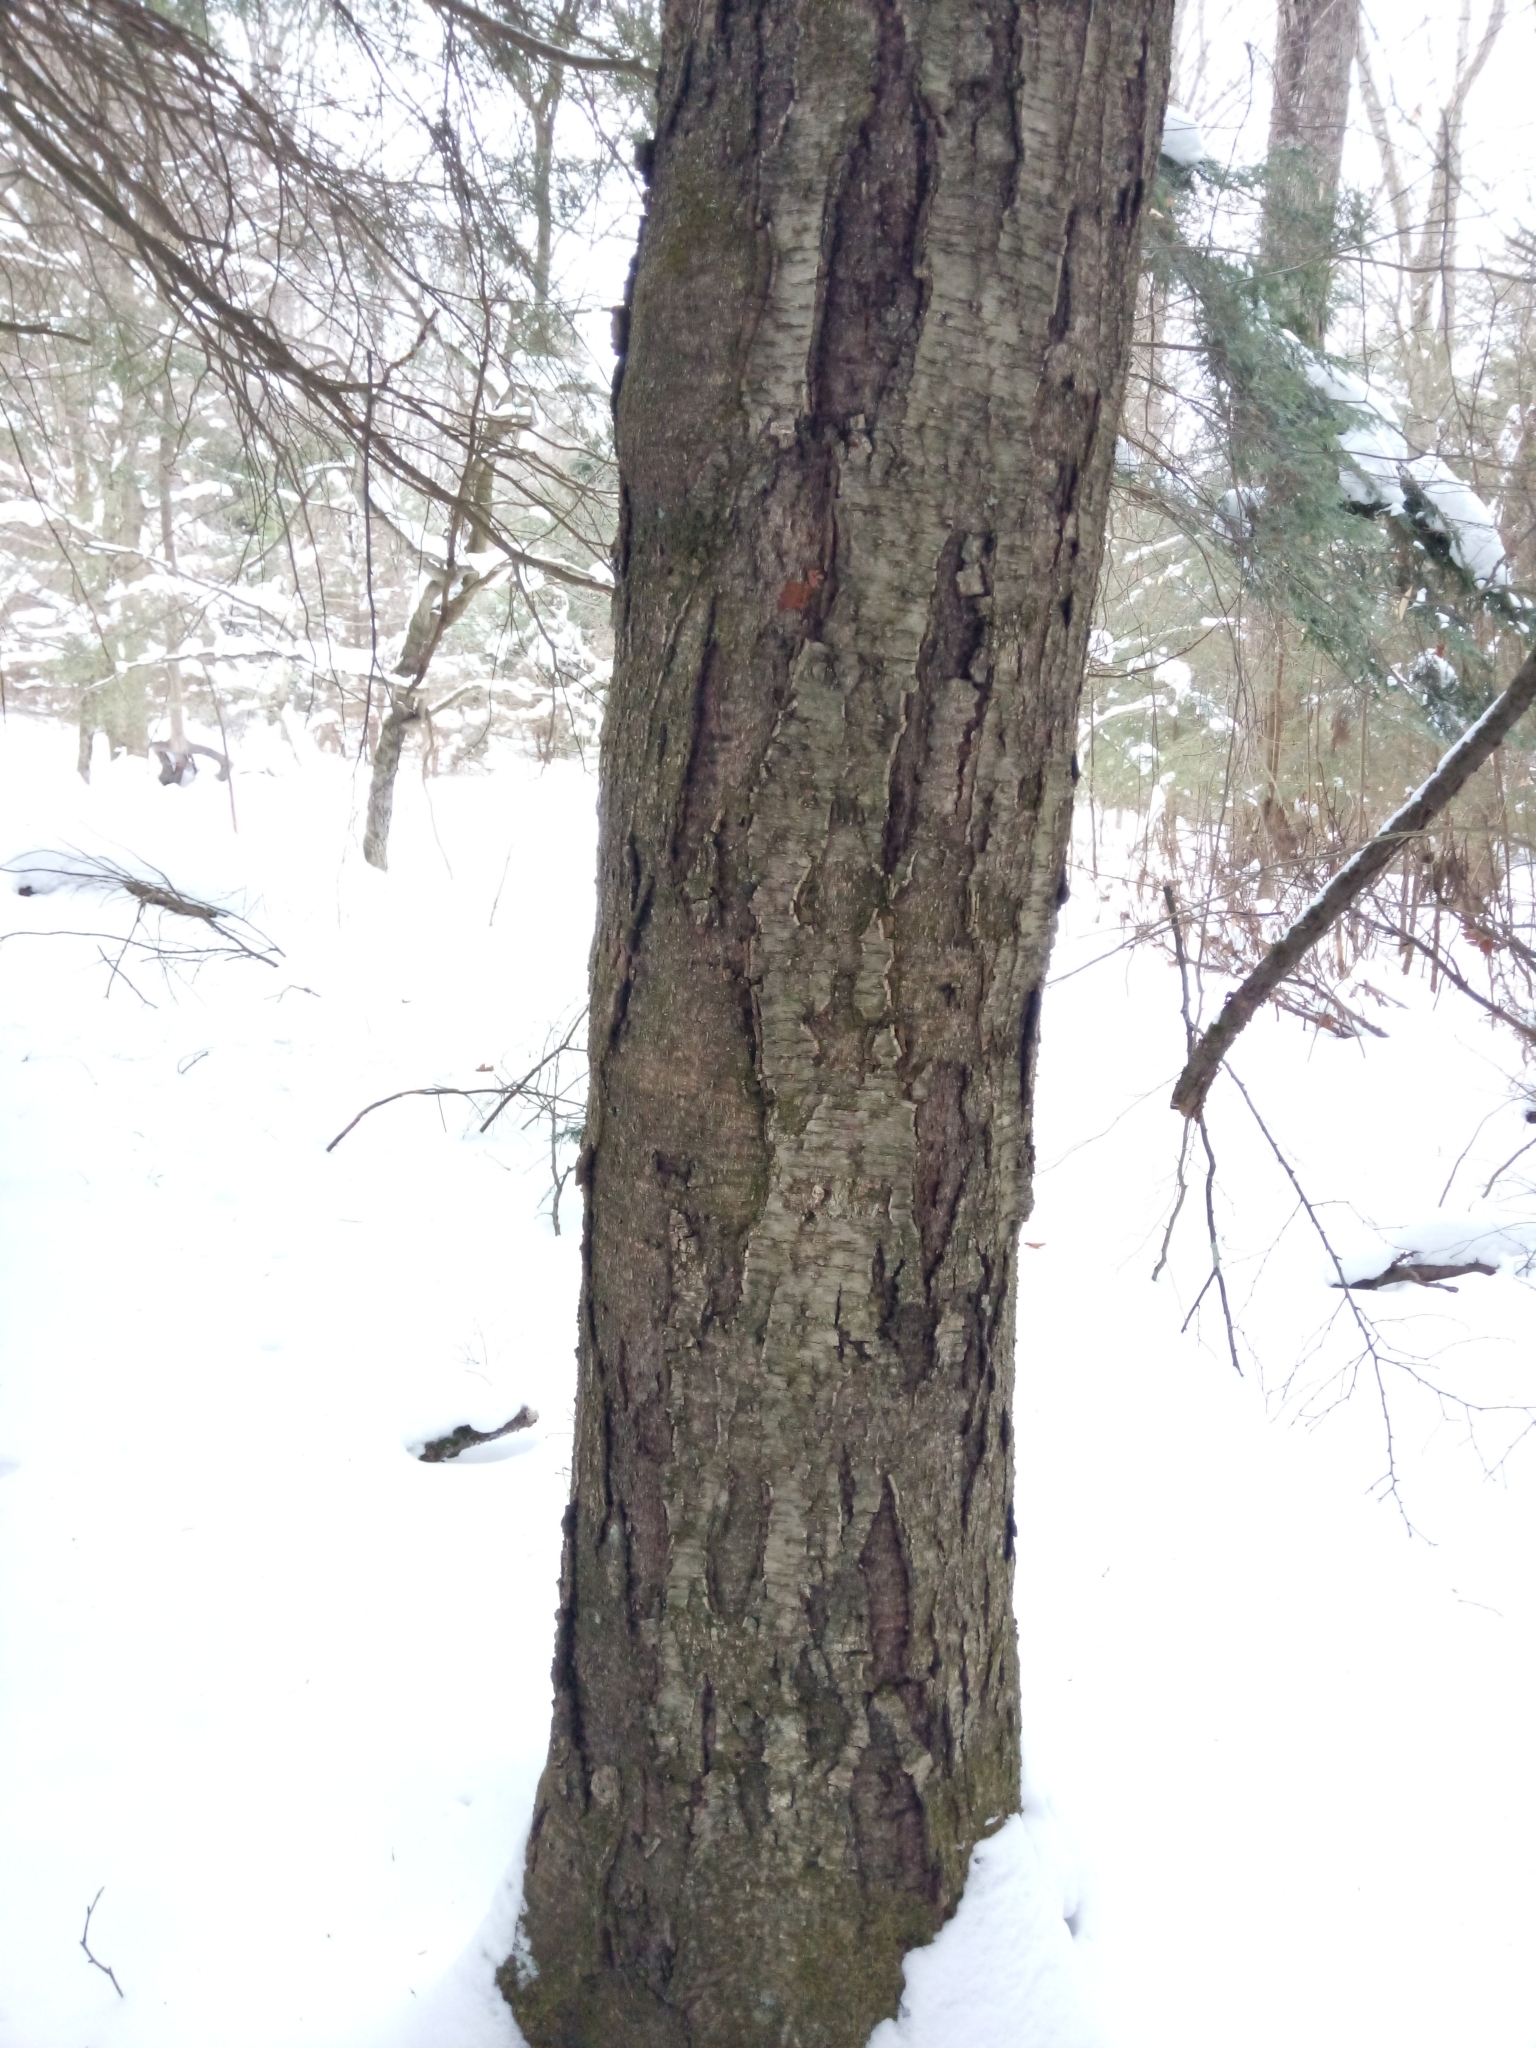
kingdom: Plantae
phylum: Tracheophyta
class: Magnoliopsida
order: Fagales
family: Betulaceae
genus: Betula
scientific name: Betula alleghaniensis
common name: Yellow birch
